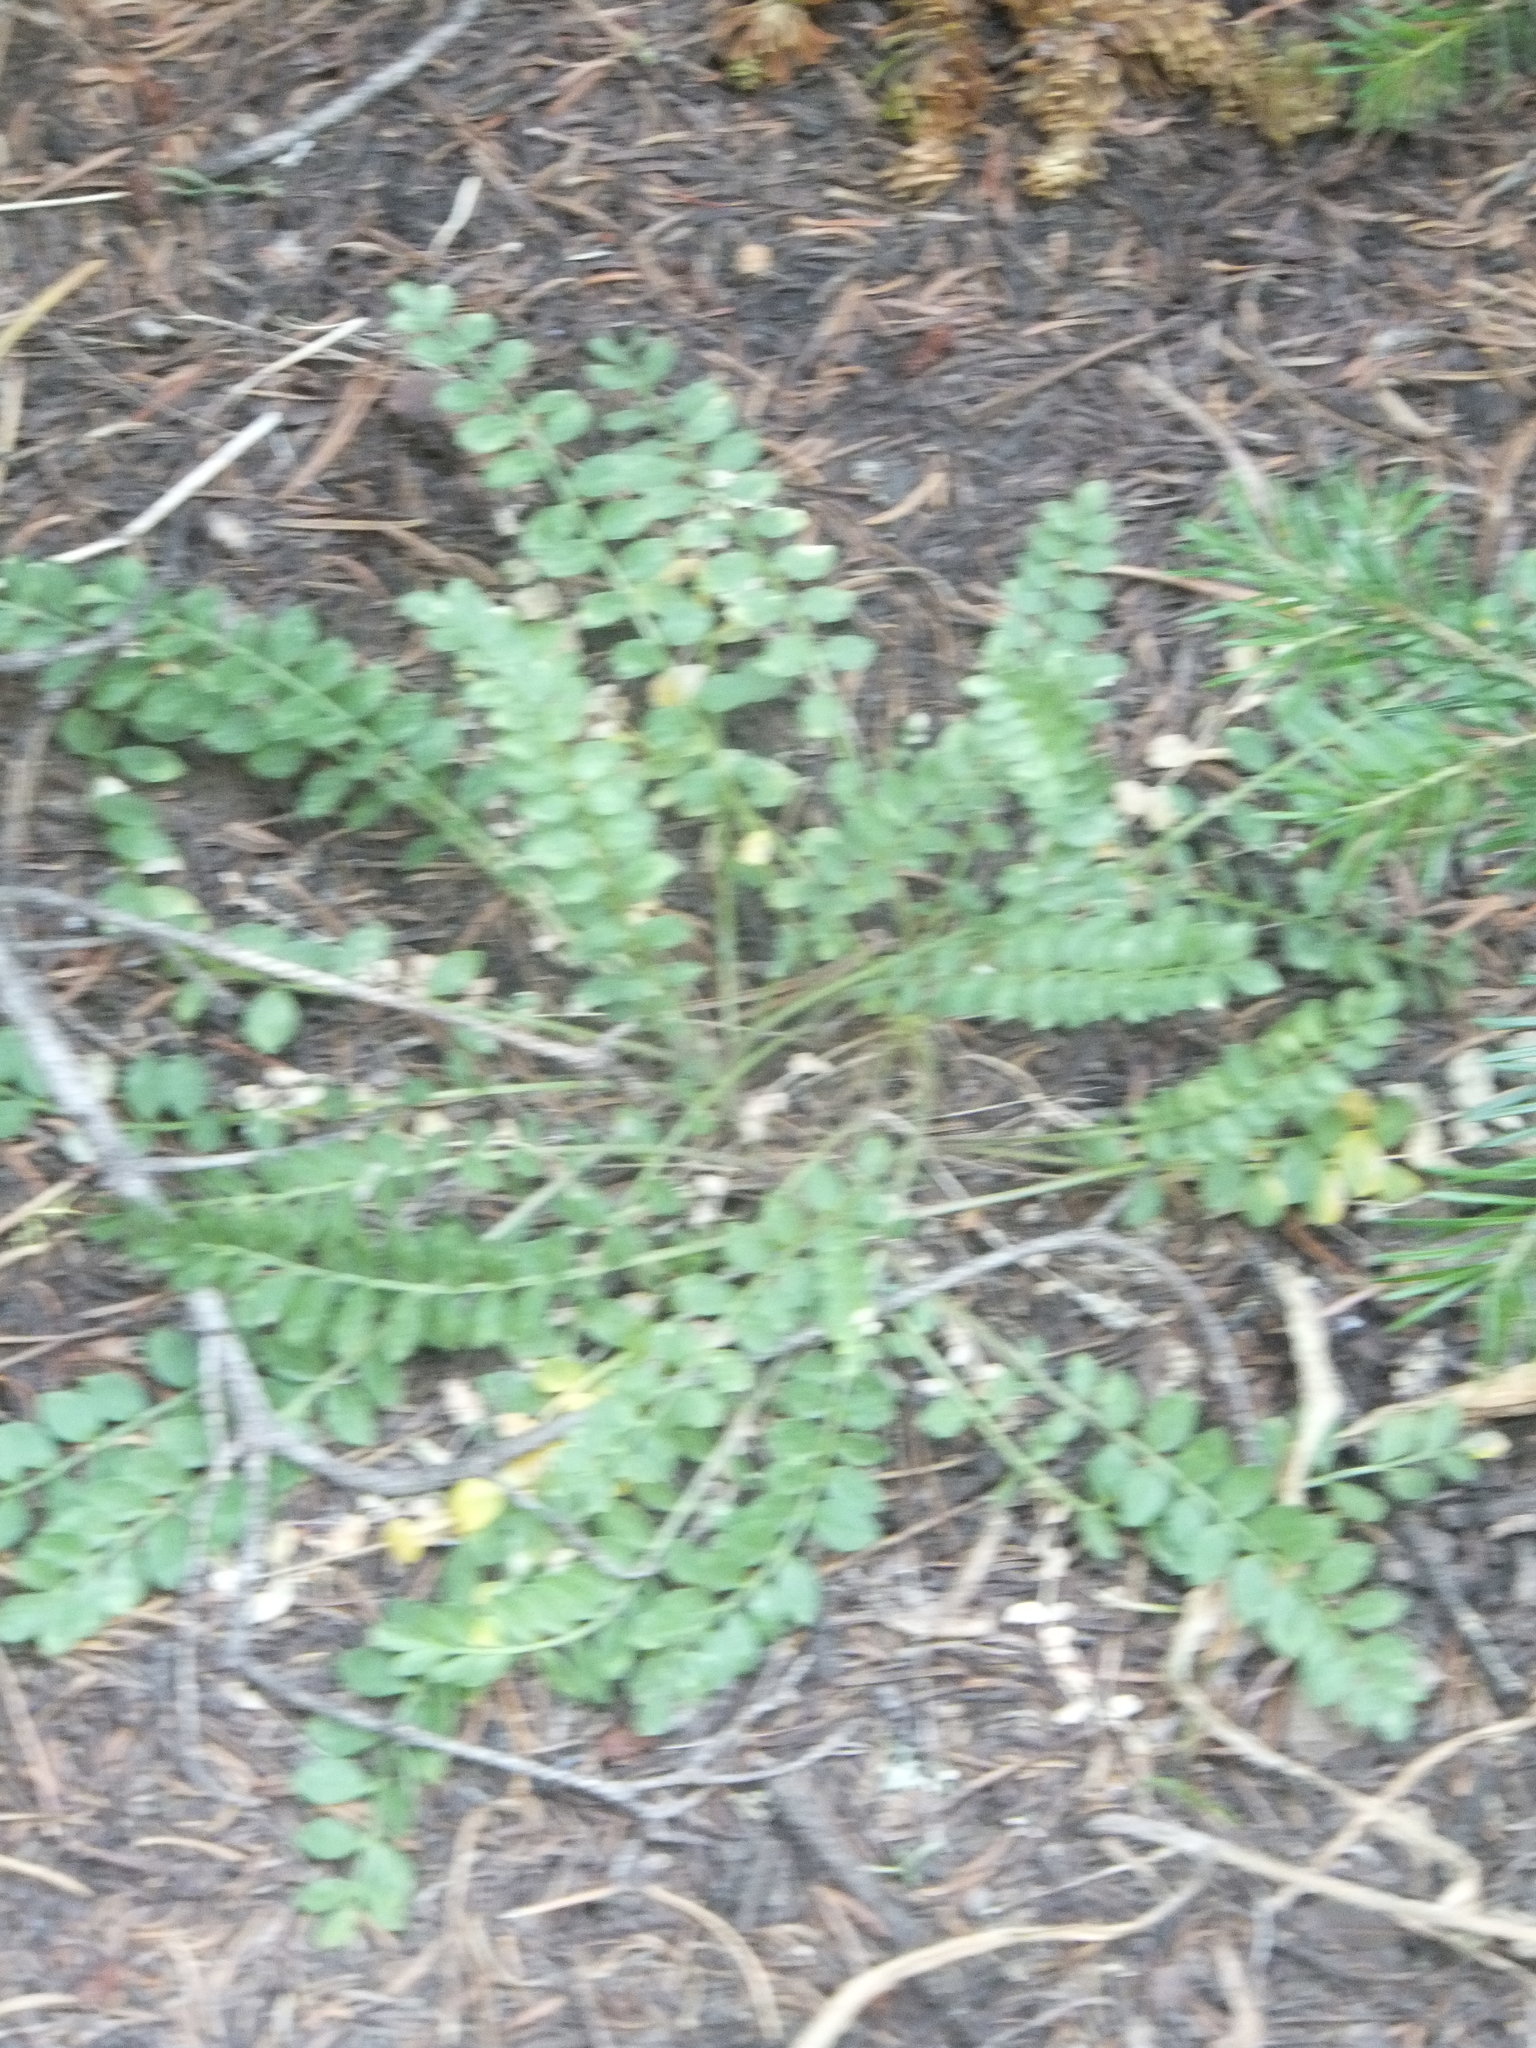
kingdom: Plantae
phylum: Tracheophyta
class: Magnoliopsida
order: Ericales
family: Polemoniaceae
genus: Polemonium
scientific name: Polemonium pulcherrimum
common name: Short jacob's-ladder
